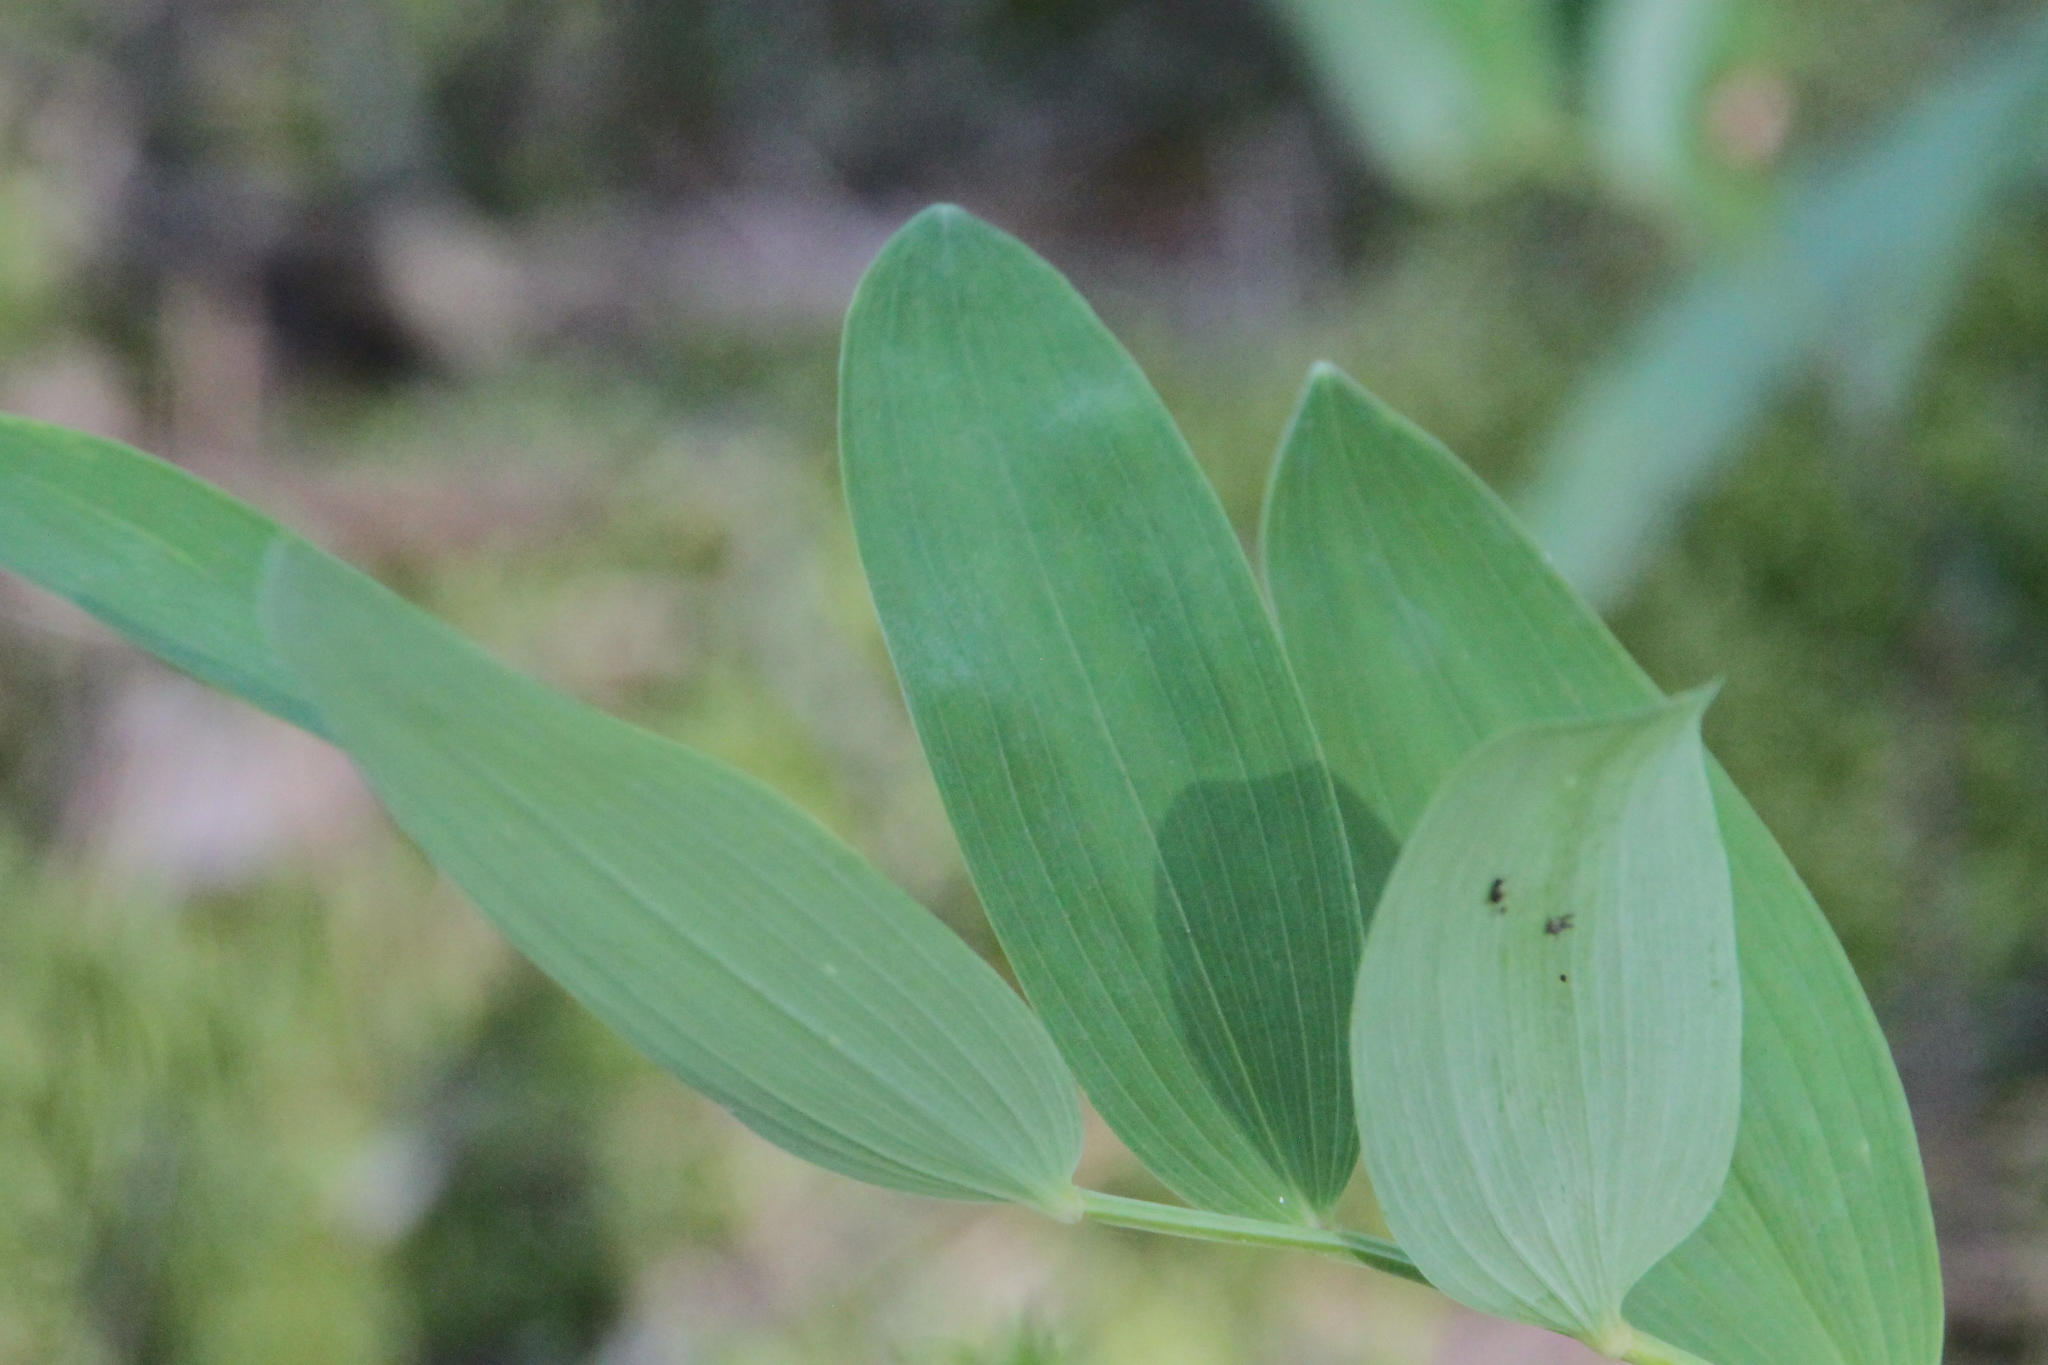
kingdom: Plantae
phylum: Tracheophyta
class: Liliopsida
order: Asparagales
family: Asparagaceae
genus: Polygonatum
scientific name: Polygonatum odoratum
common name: Angular solomon's-seal
